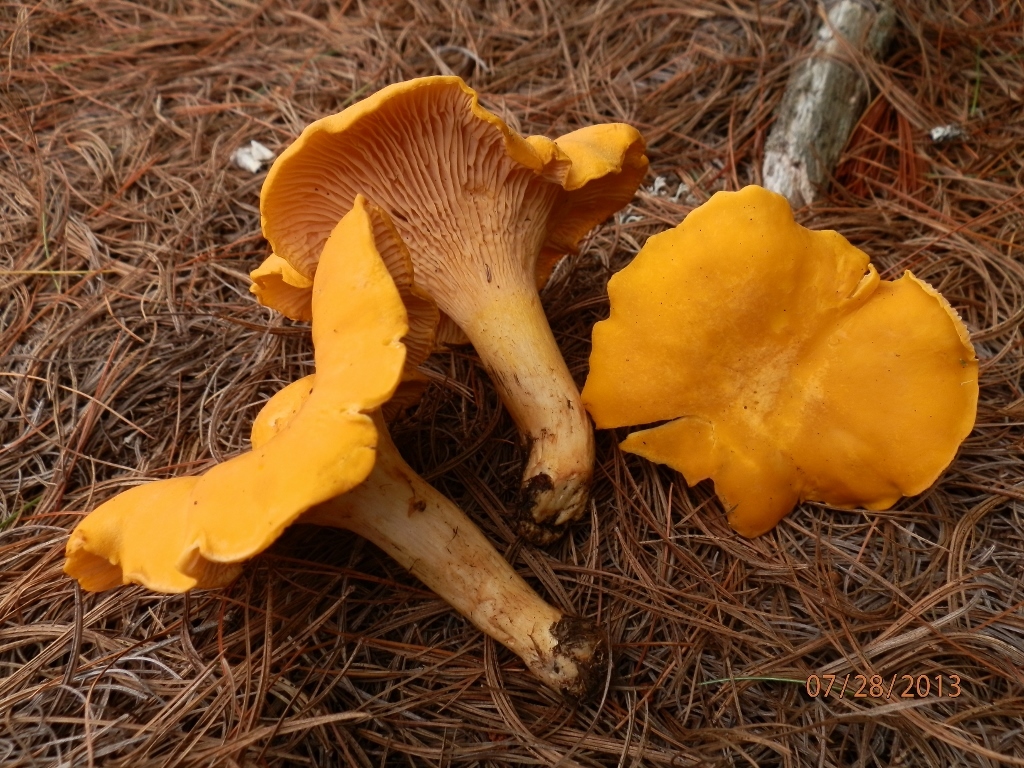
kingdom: Fungi
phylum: Basidiomycota
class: Agaricomycetes
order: Cantharellales
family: Hydnaceae
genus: Cantharellus
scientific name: Cantharellus enelensis
